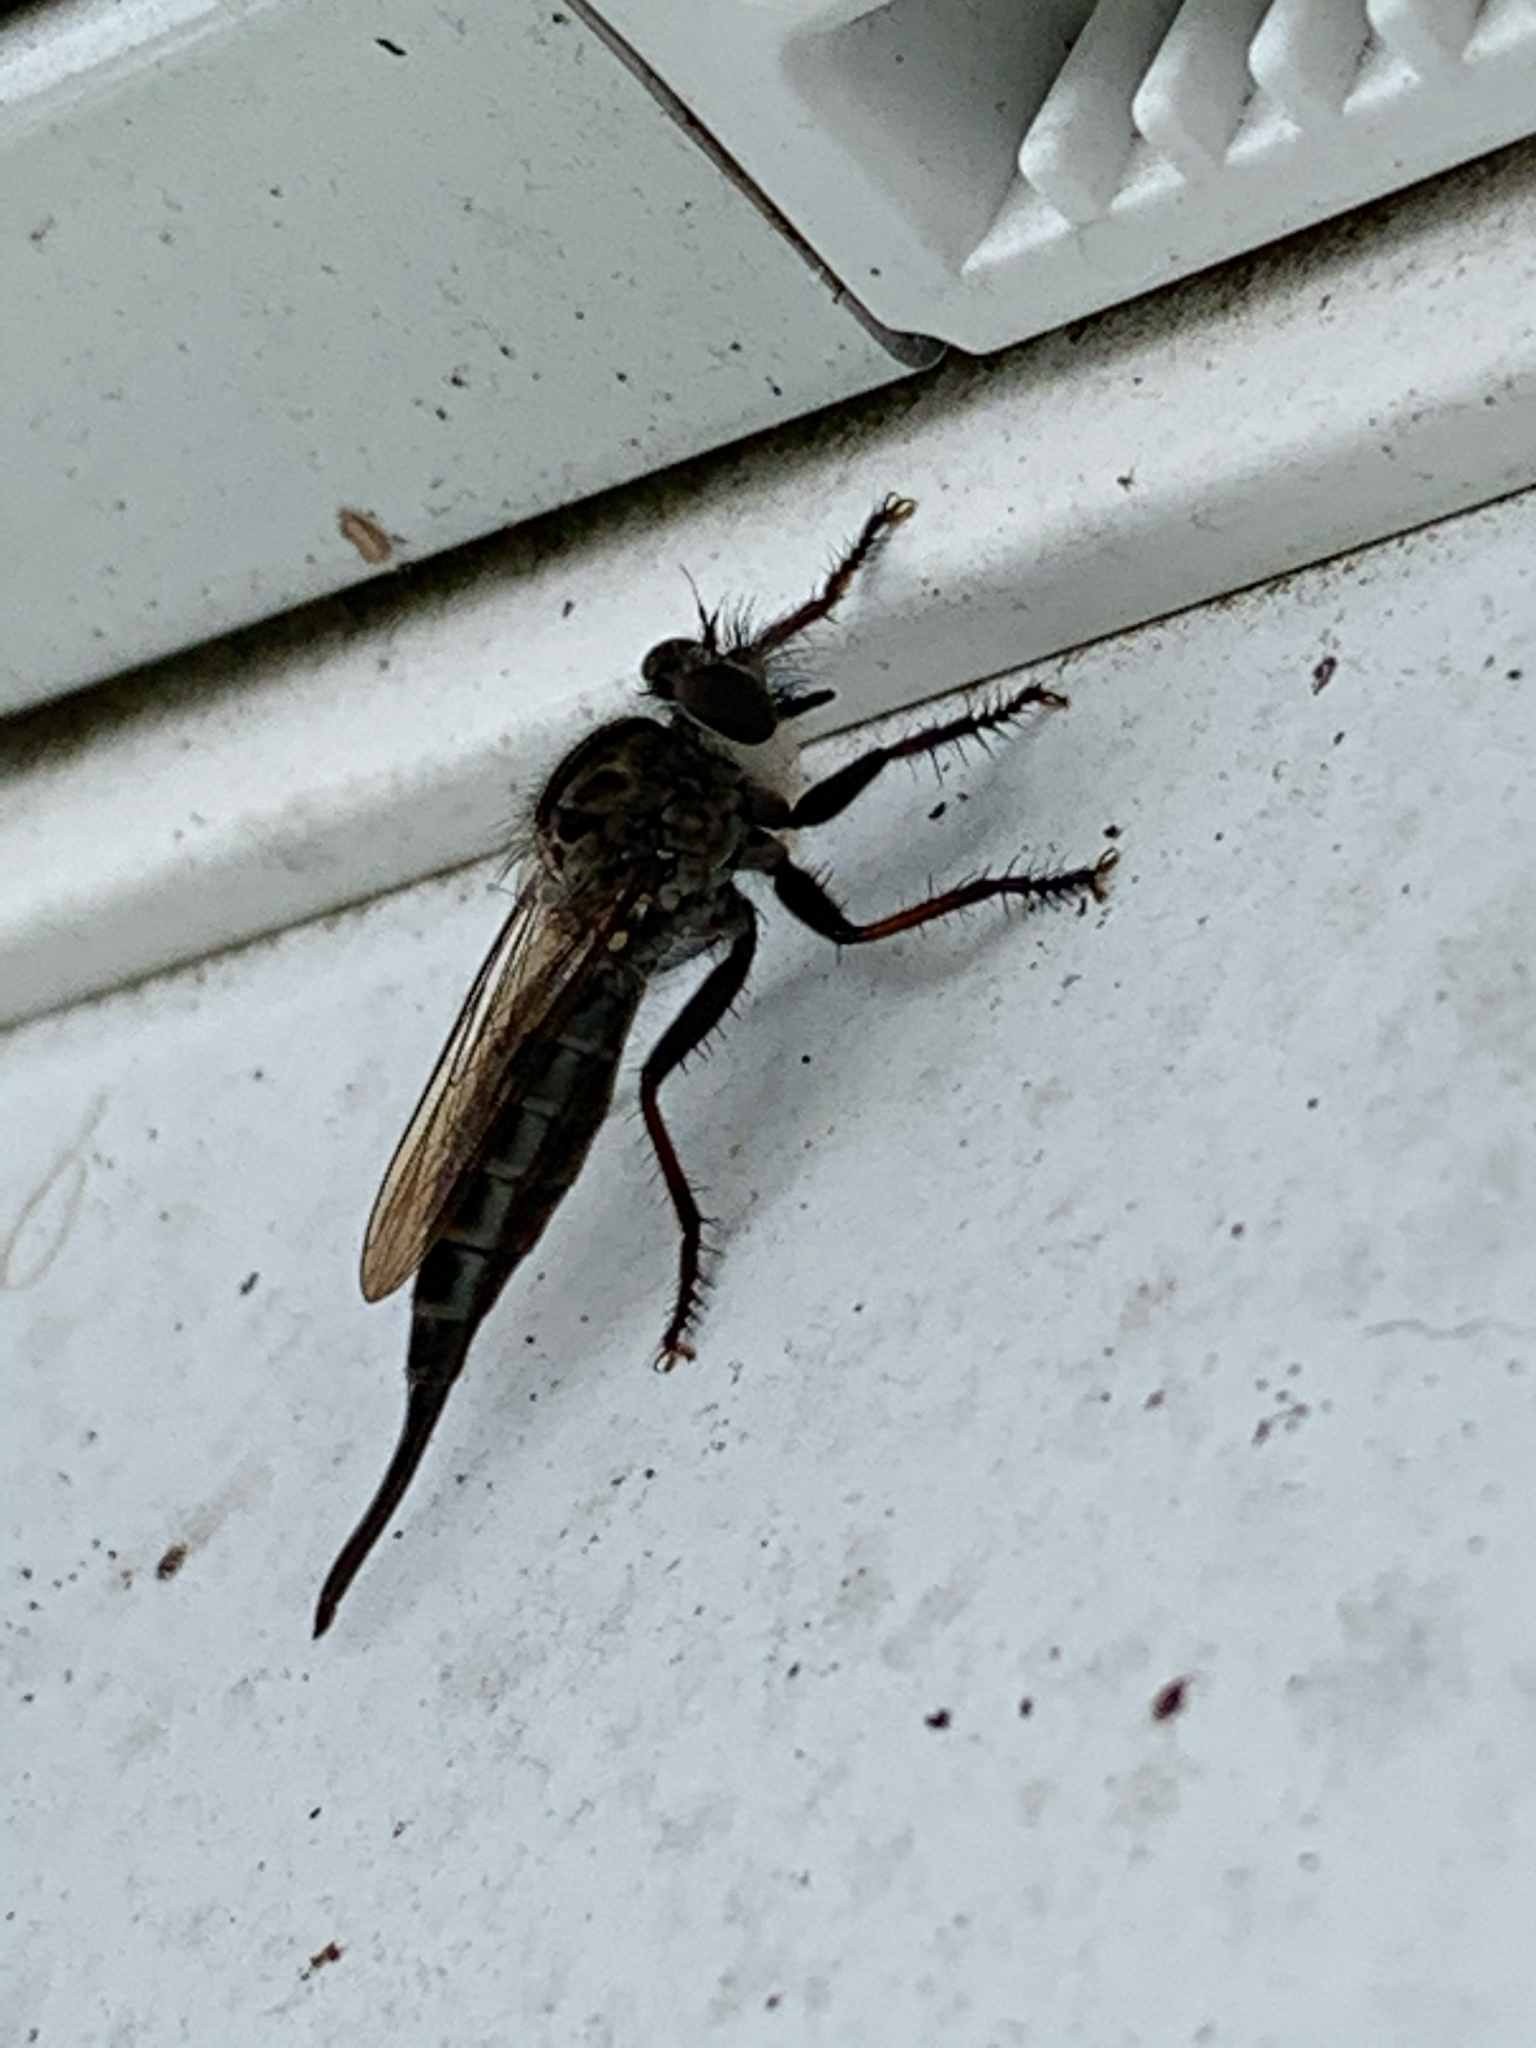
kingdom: Animalia
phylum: Arthropoda
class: Insecta
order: Diptera
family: Asilidae
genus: Efferia
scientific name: Efferia aestuans
